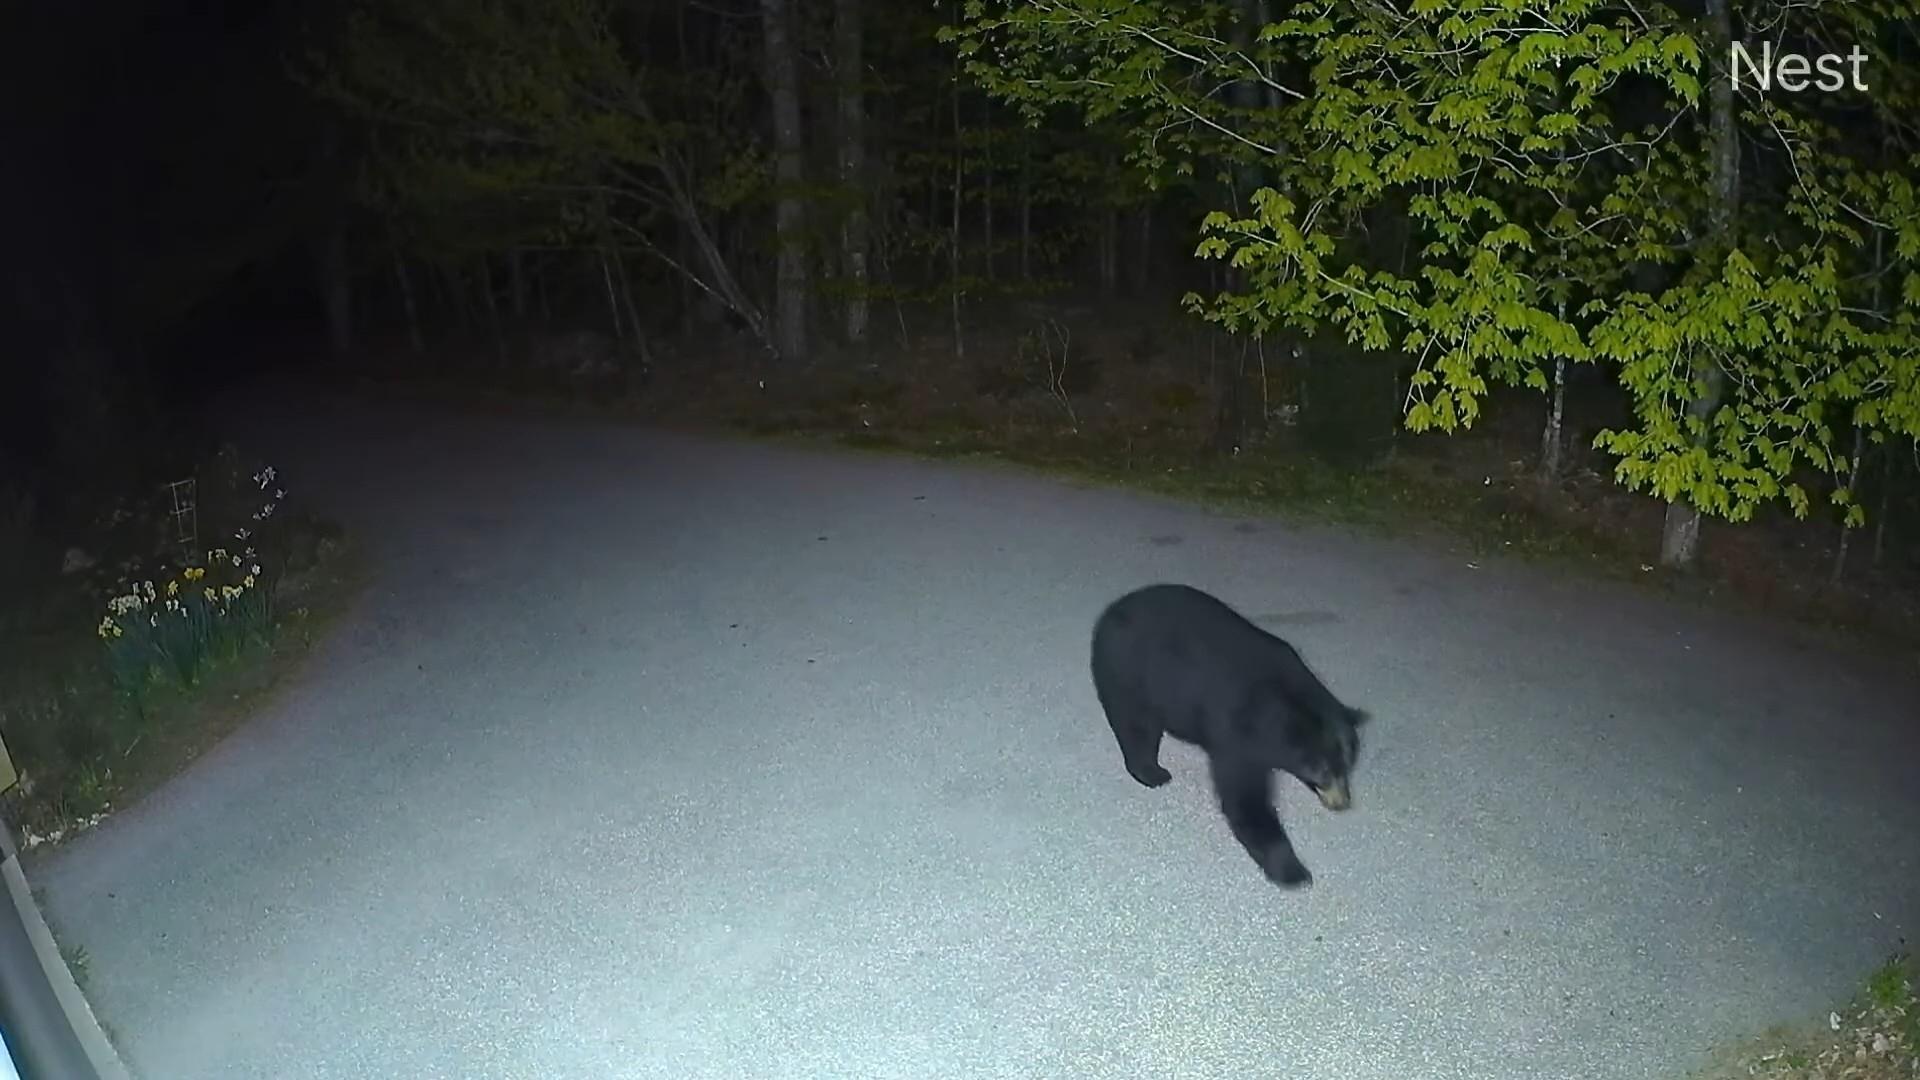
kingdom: Animalia
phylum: Chordata
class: Mammalia
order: Carnivora
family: Ursidae
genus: Ursus
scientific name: Ursus americanus
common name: American black bear
